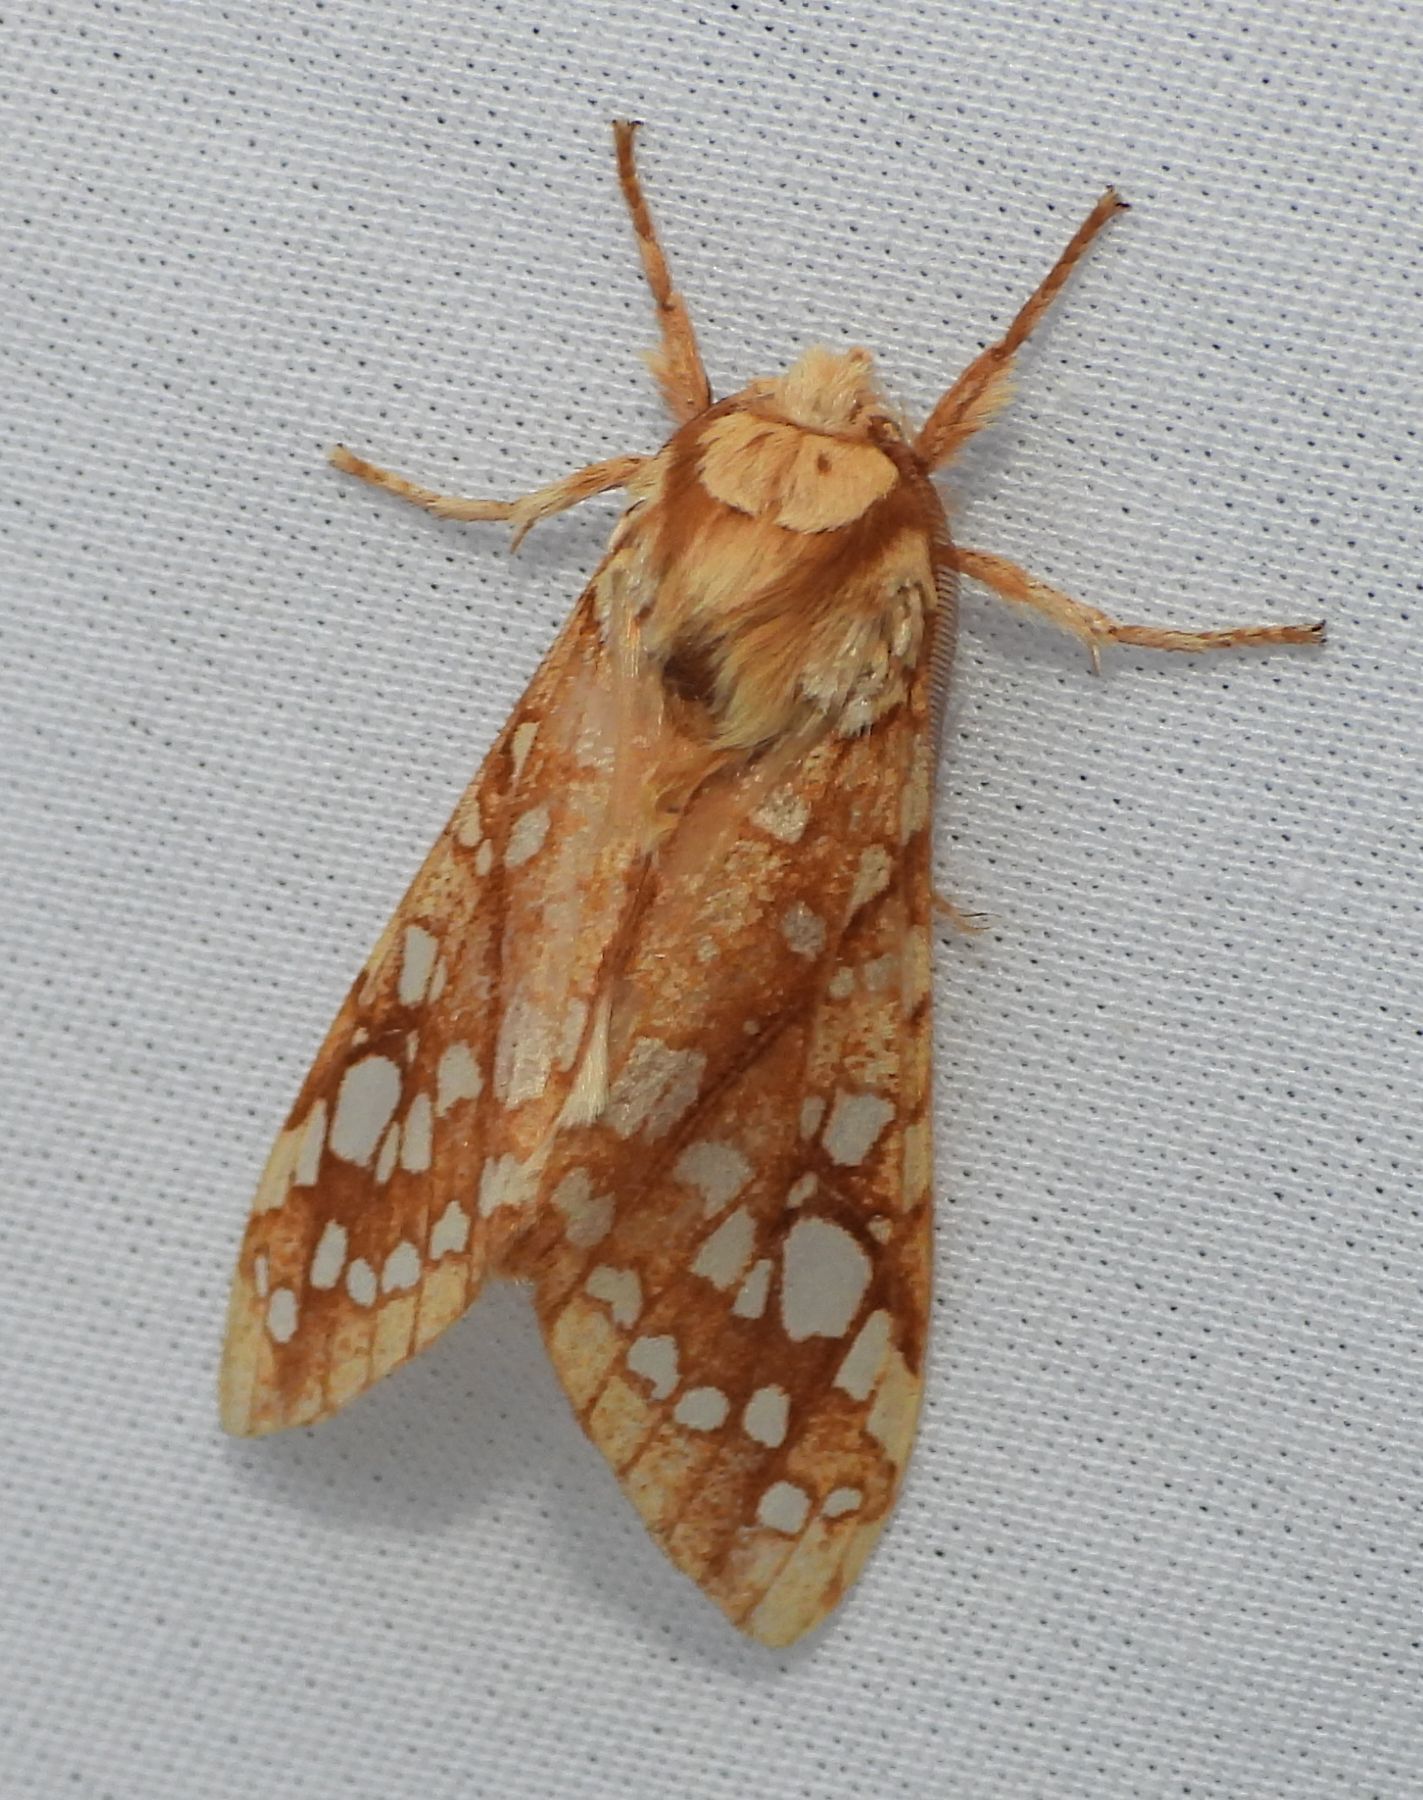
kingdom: Animalia
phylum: Arthropoda
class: Insecta
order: Lepidoptera
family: Erebidae
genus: Lophocampa
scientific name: Lophocampa caryae
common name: Hickory tussock moth
